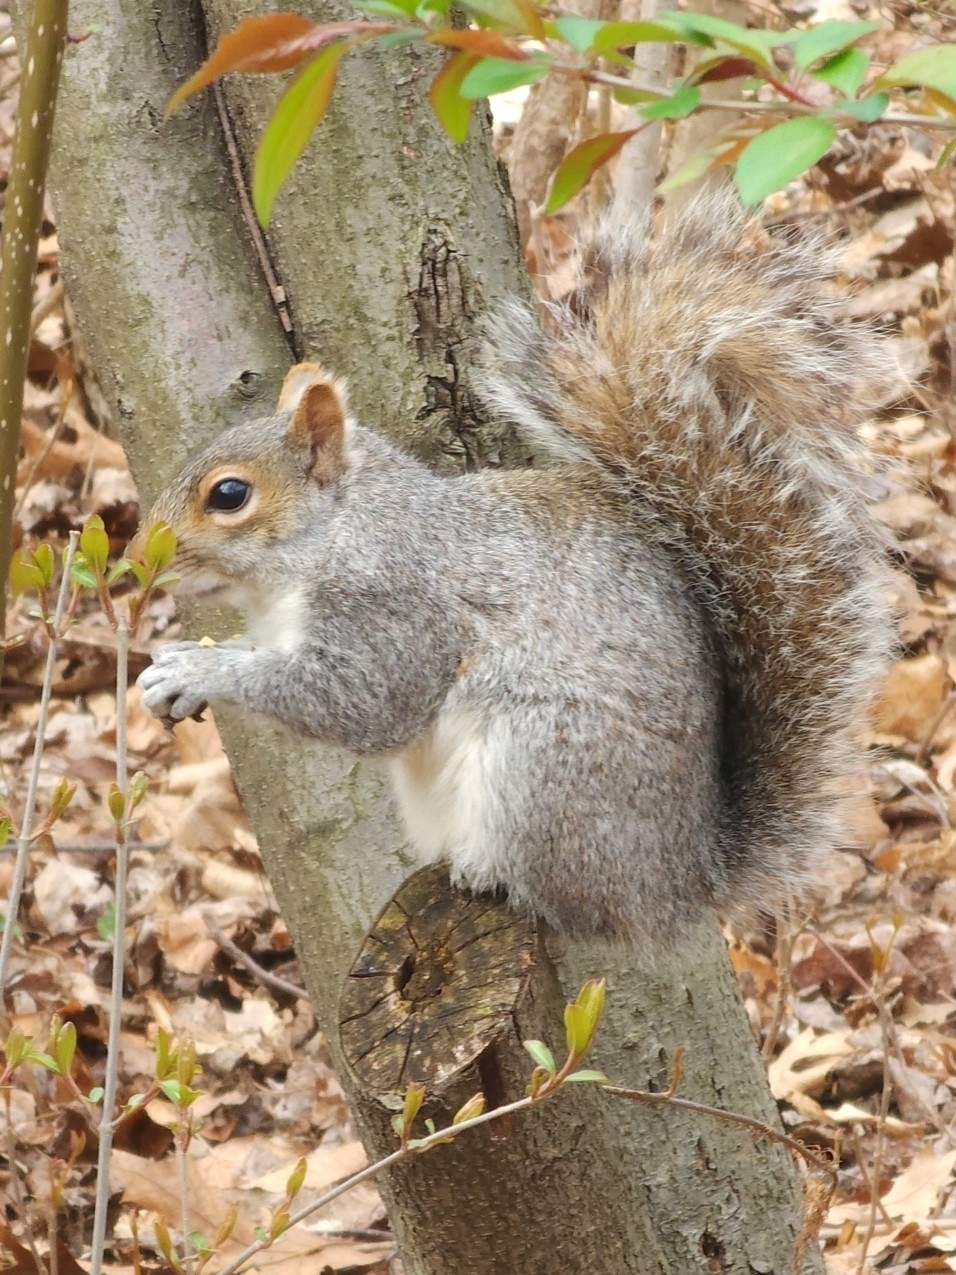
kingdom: Animalia
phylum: Chordata
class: Mammalia
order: Rodentia
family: Sciuridae
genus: Sciurus
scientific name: Sciurus carolinensis
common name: Eastern gray squirrel
